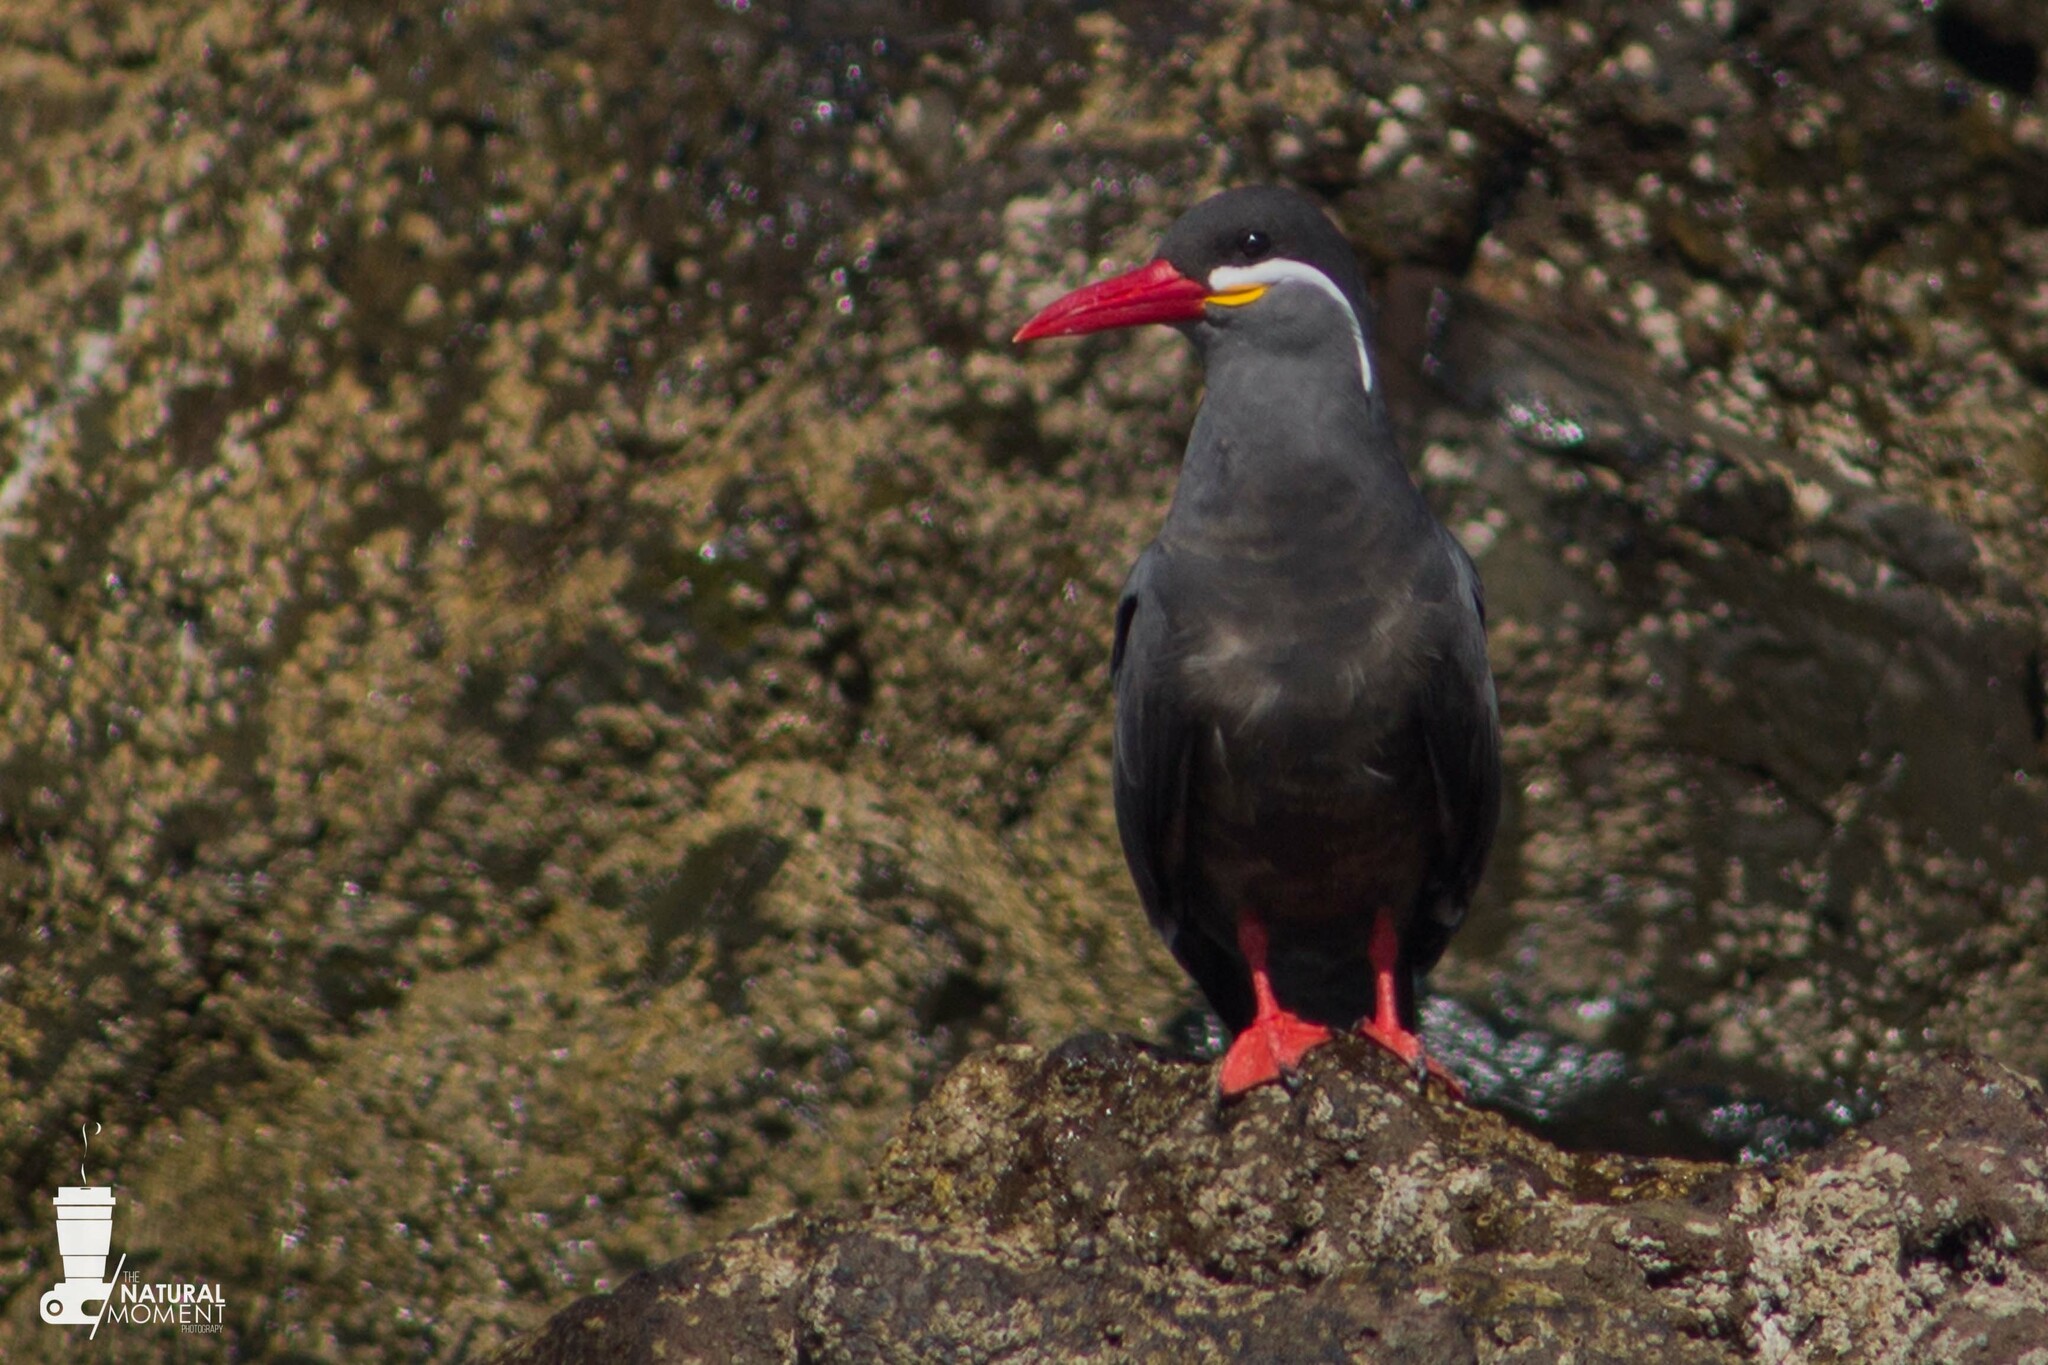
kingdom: Animalia
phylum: Chordata
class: Aves
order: Charadriiformes
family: Laridae
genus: Larosterna
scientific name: Larosterna inca
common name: Inca tern
